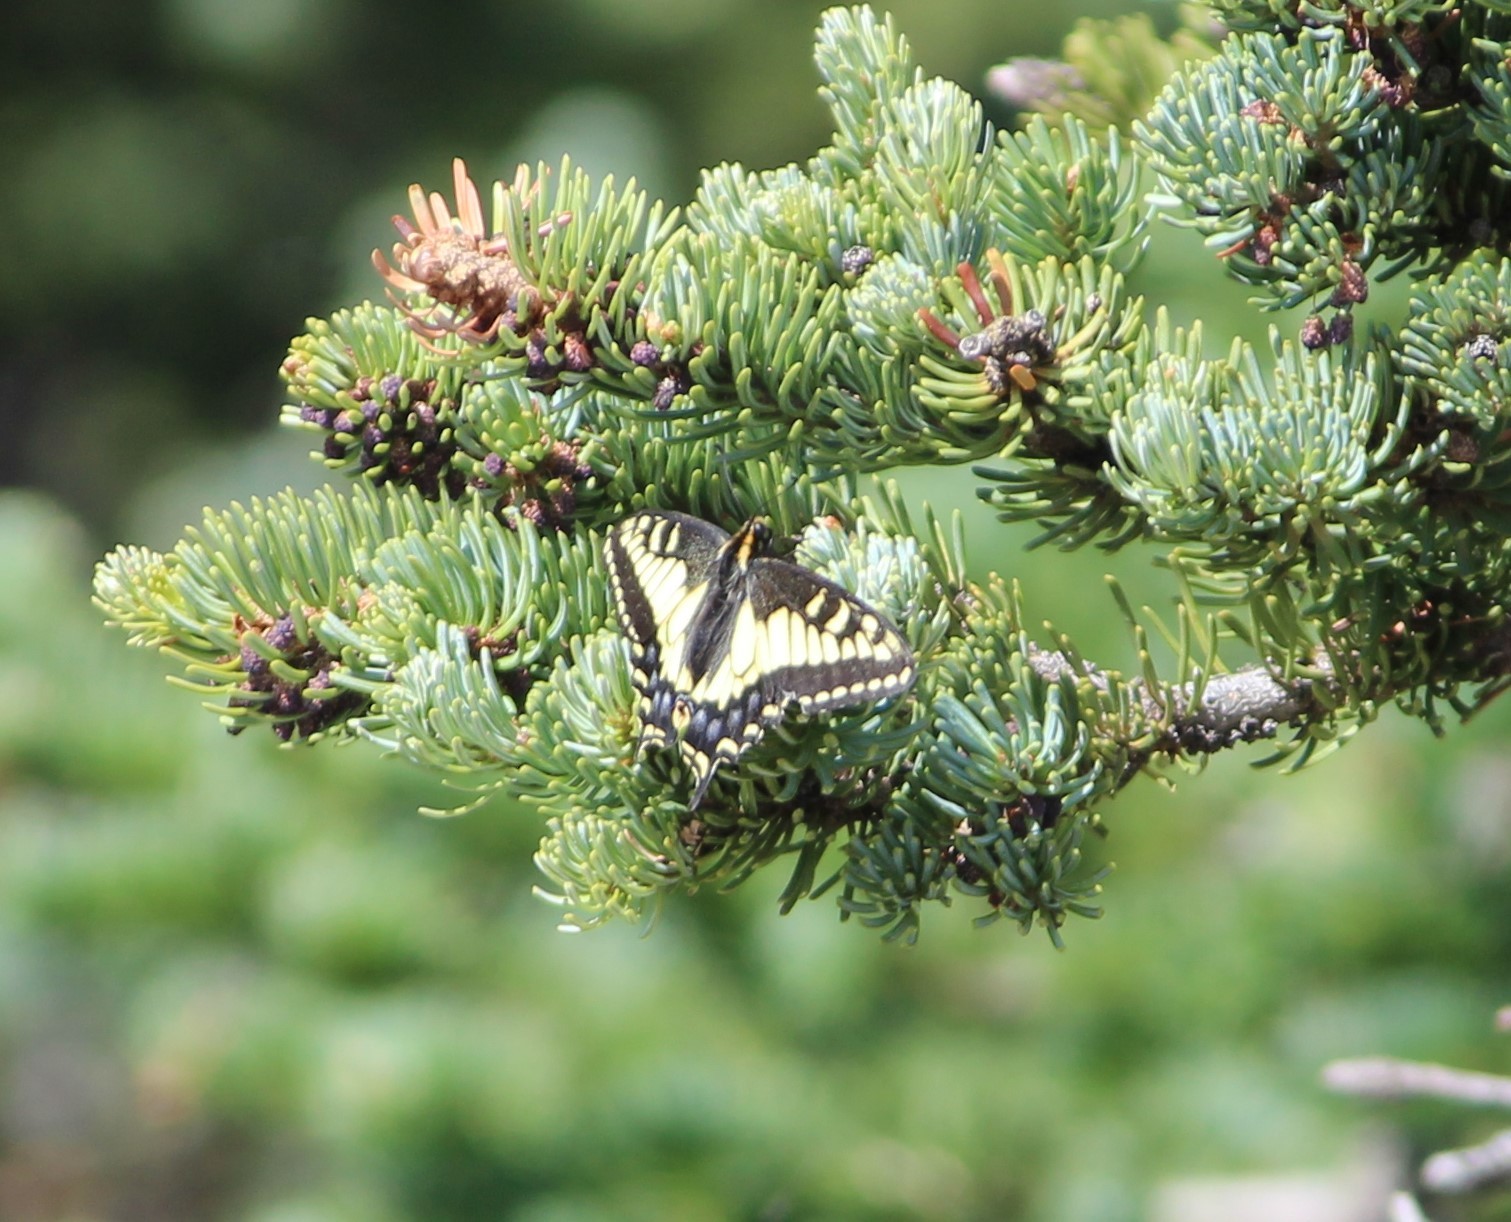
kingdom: Animalia
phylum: Arthropoda
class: Insecta
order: Lepidoptera
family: Papilionidae
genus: Papilio
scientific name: Papilio zelicaon
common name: Anise swallowtail
